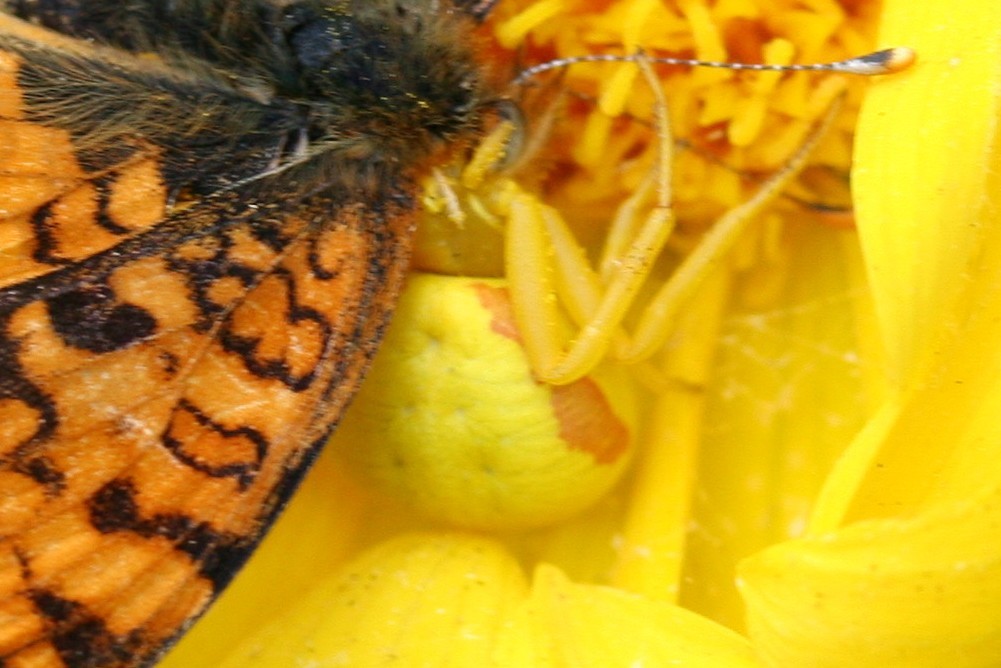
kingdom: Animalia
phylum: Arthropoda
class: Arachnida
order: Araneae
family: Thomisidae
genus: Misumena
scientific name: Misumena vatia
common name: Goldenrod crab spider
